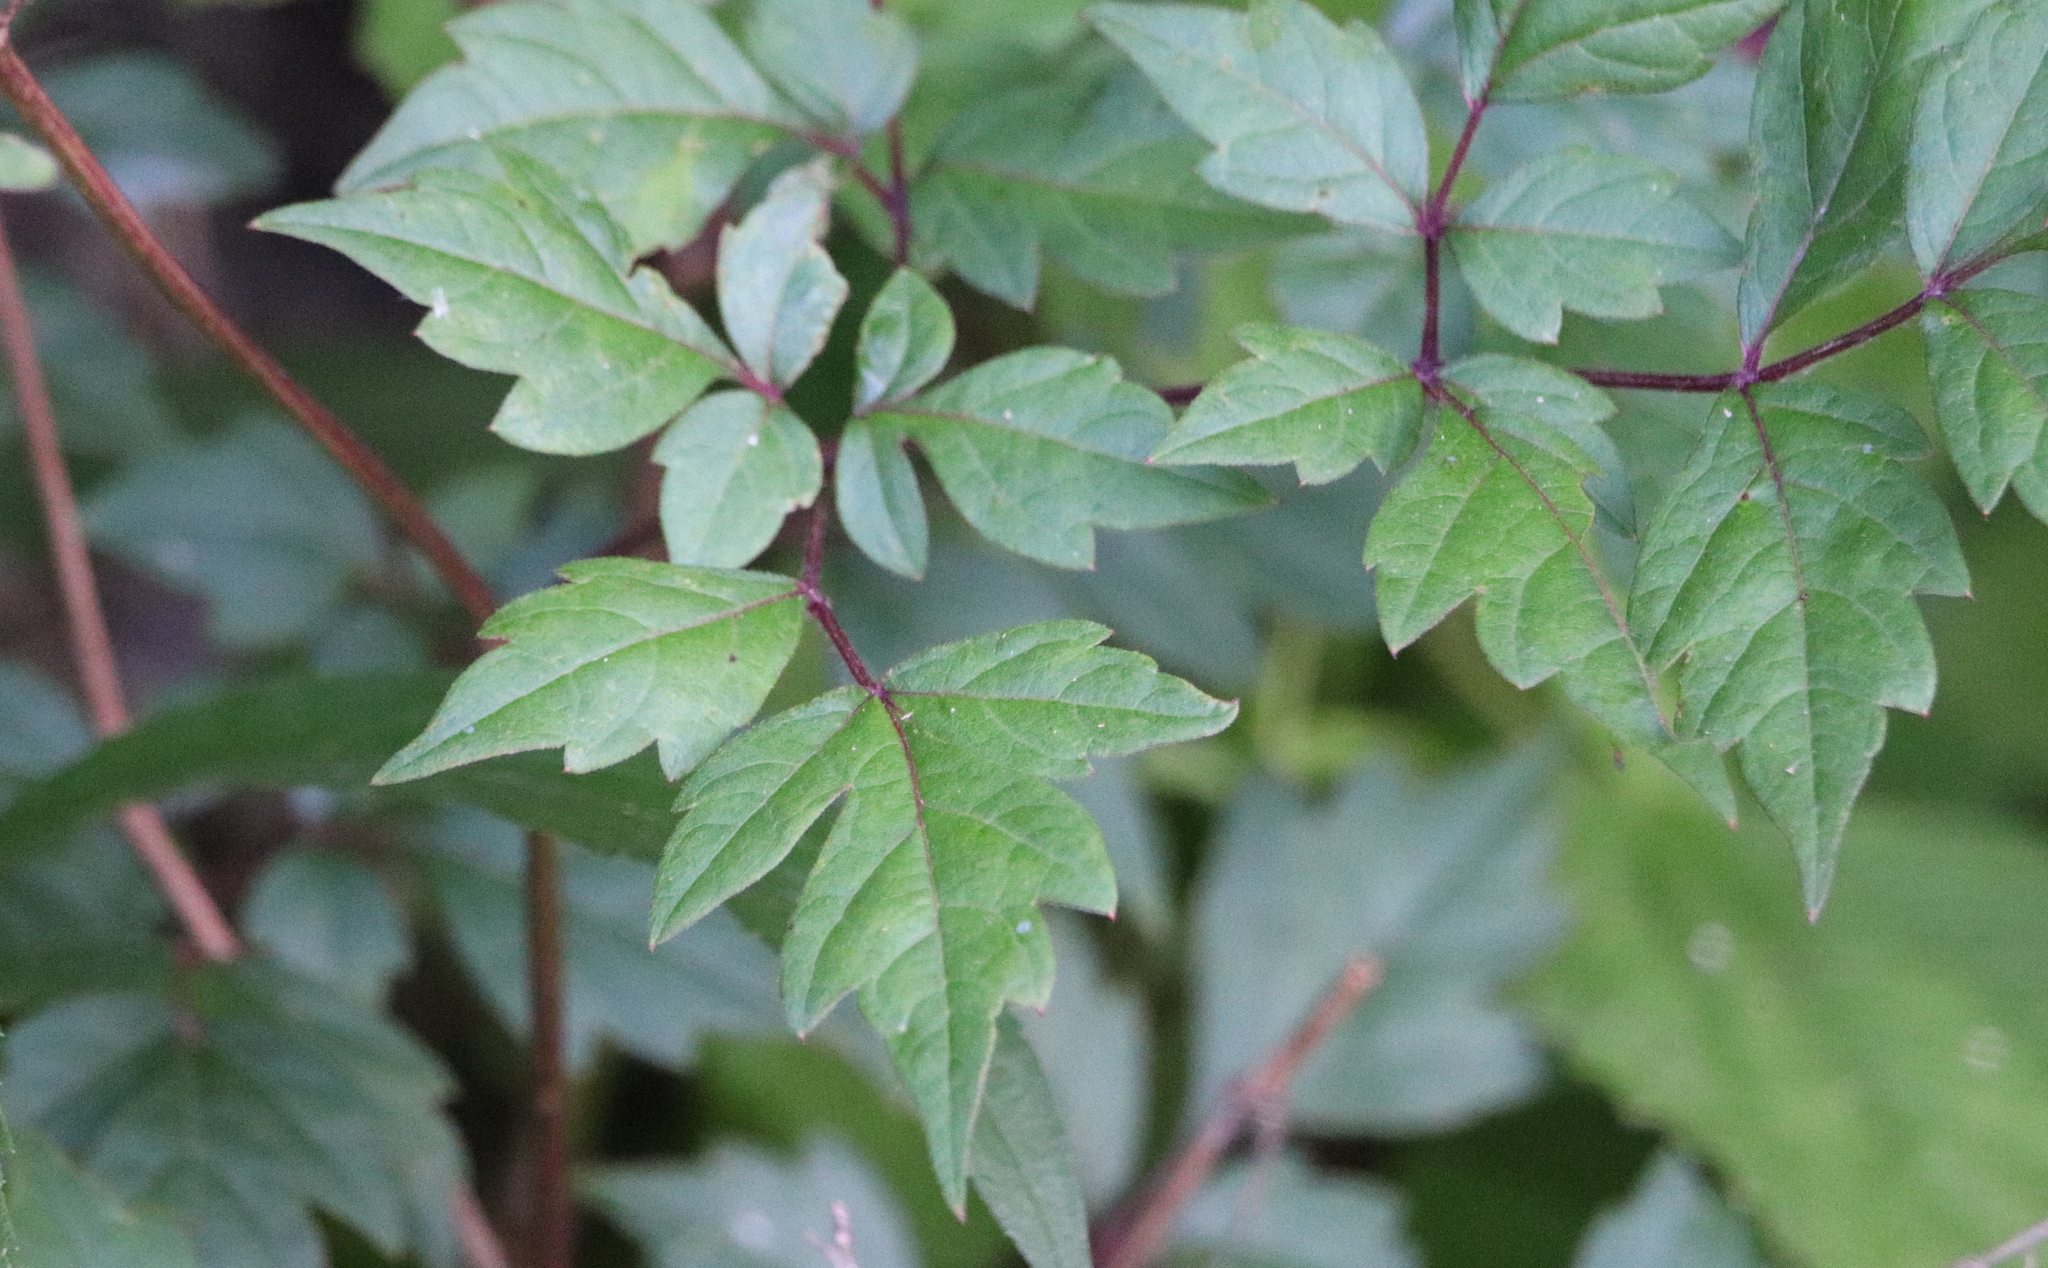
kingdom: Plantae
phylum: Tracheophyta
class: Magnoliopsida
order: Vitales
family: Vitaceae
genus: Nekemias
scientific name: Nekemias arborea
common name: Peppervine
